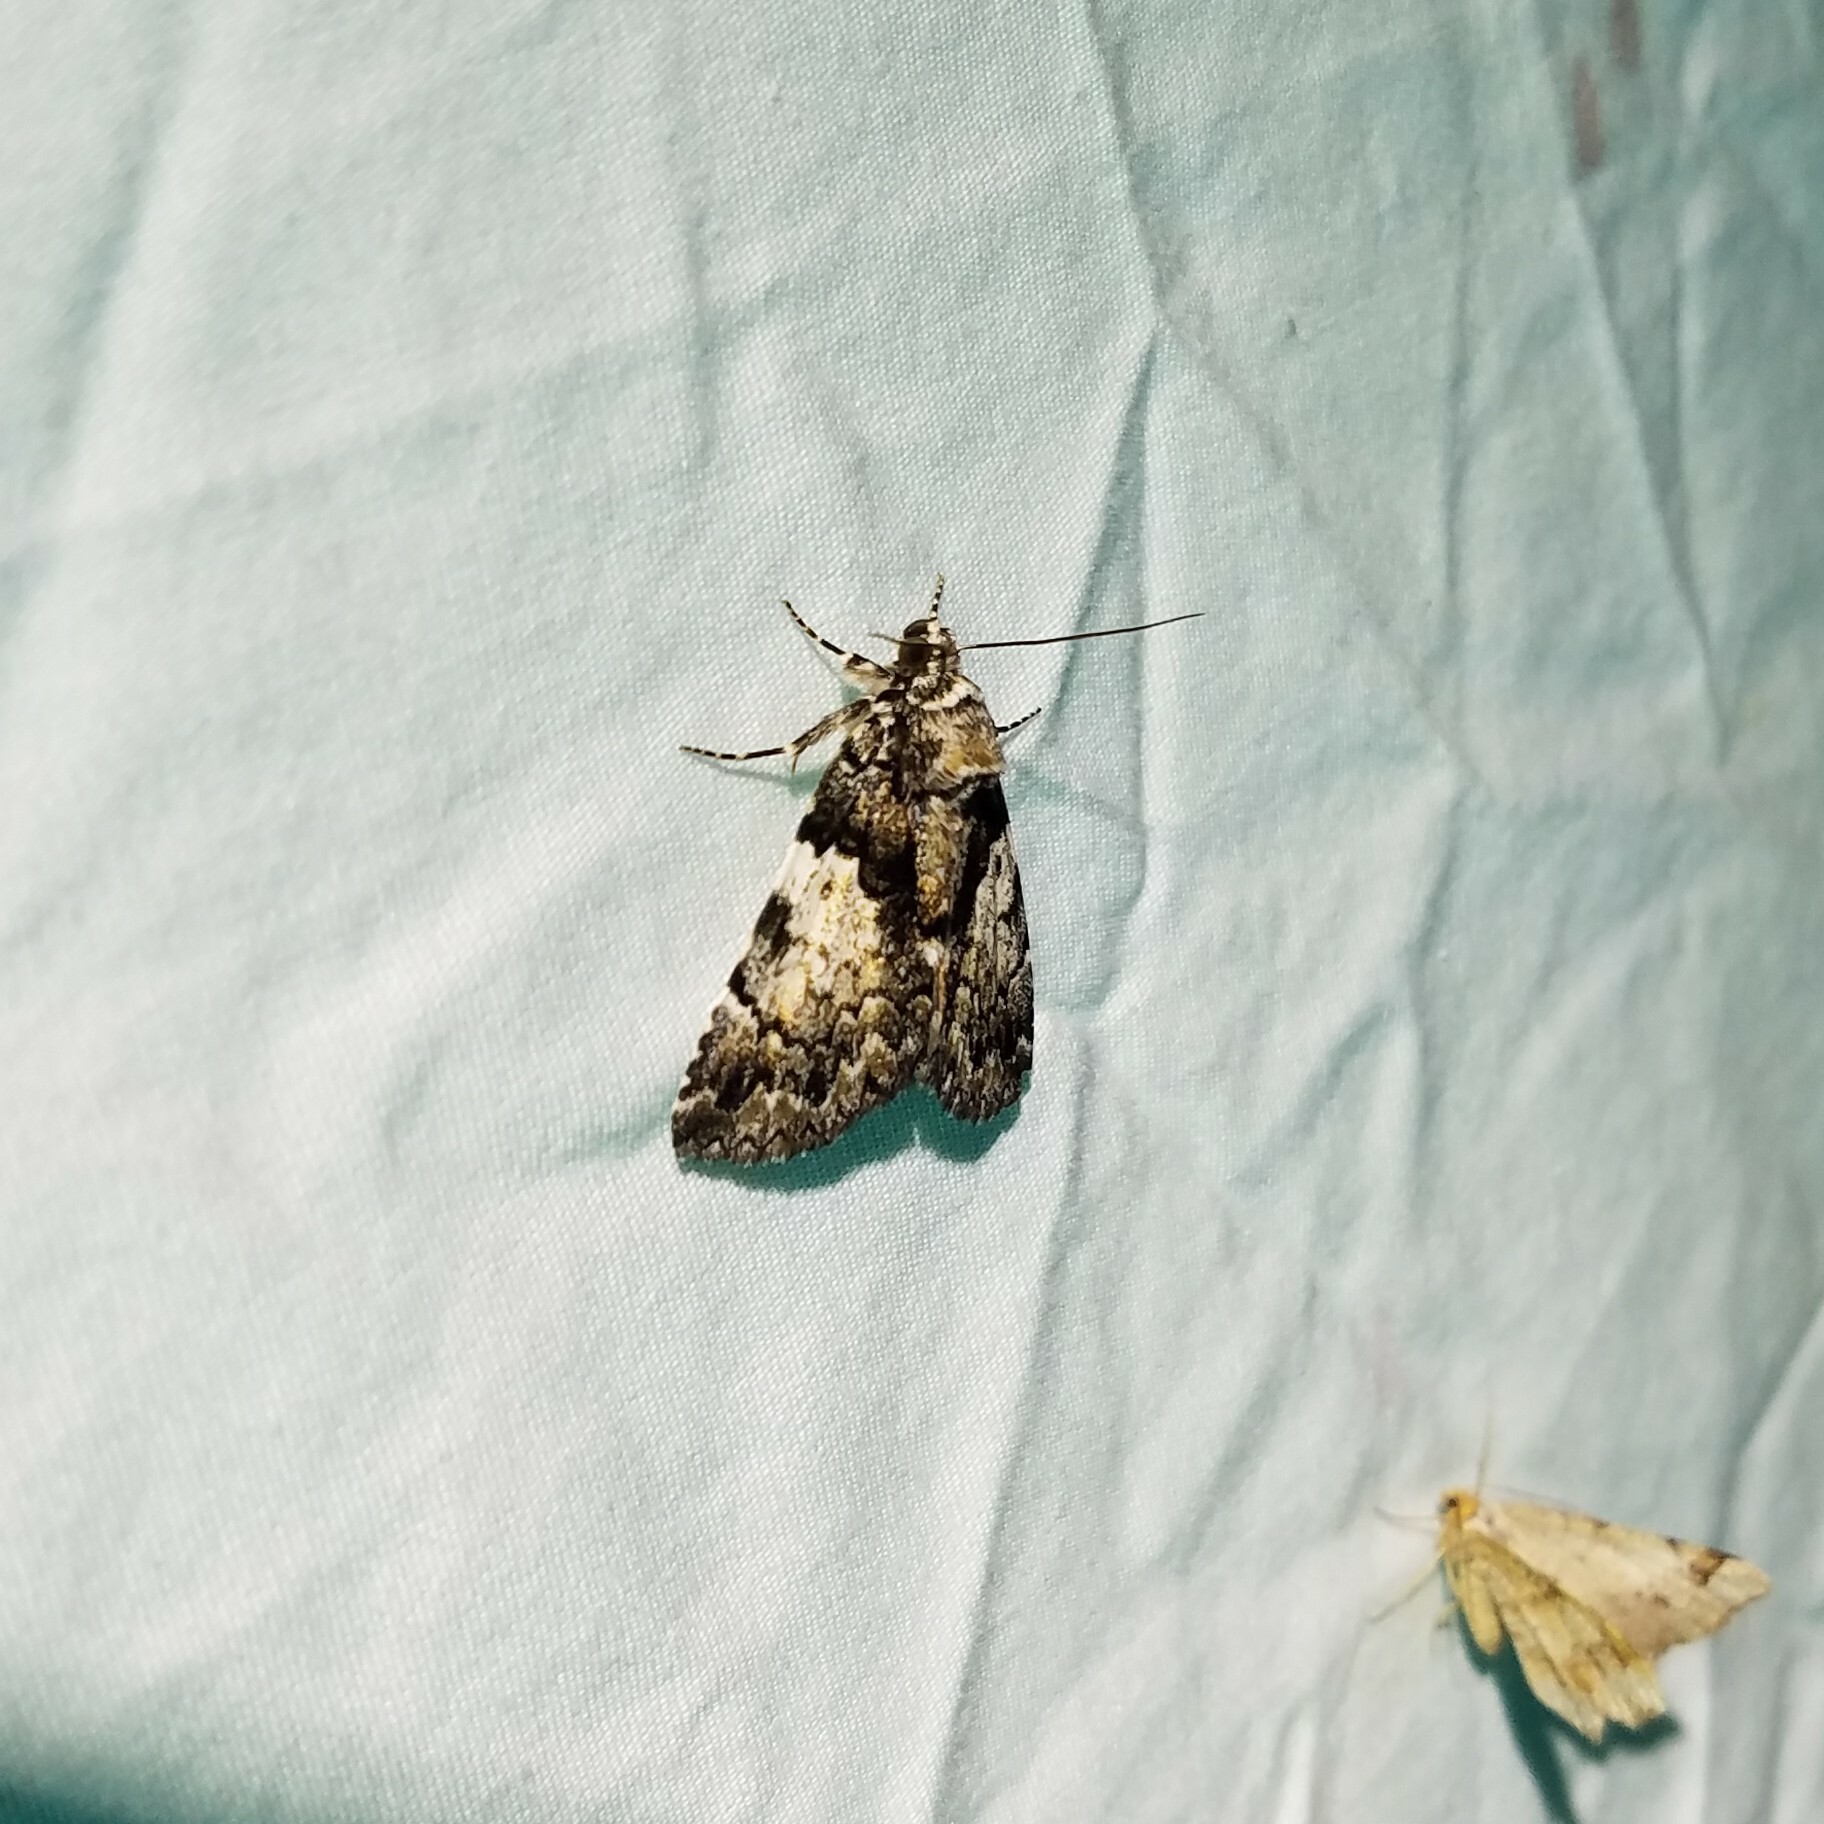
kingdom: Animalia
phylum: Arthropoda
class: Insecta
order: Lepidoptera
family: Erebidae
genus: Allotria
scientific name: Allotria elonympha
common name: False underwing
